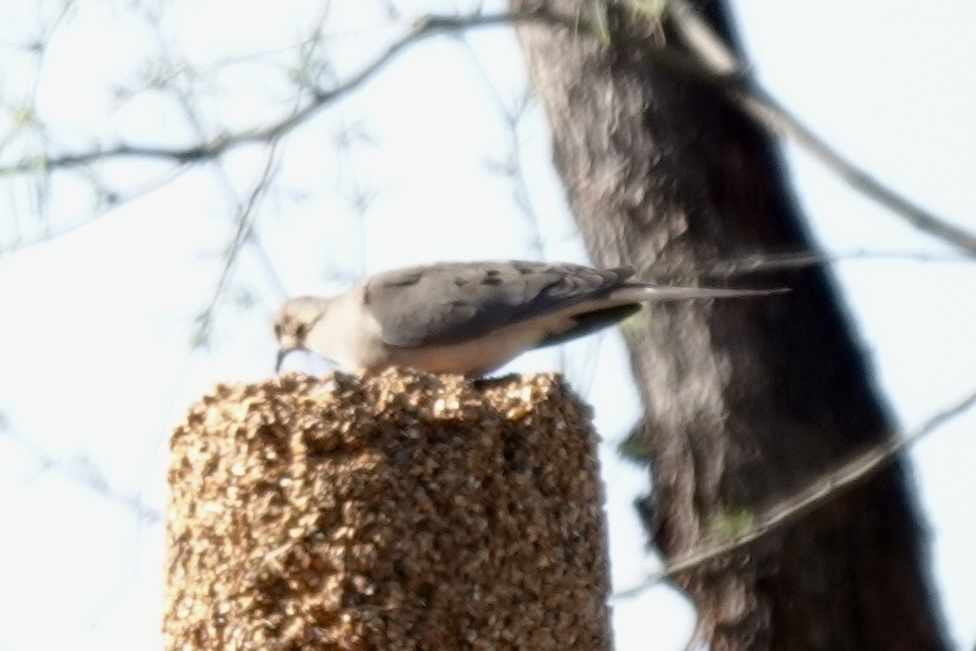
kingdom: Animalia
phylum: Chordata
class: Aves
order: Columbiformes
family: Columbidae
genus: Zenaida
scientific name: Zenaida macroura
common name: Mourning dove
